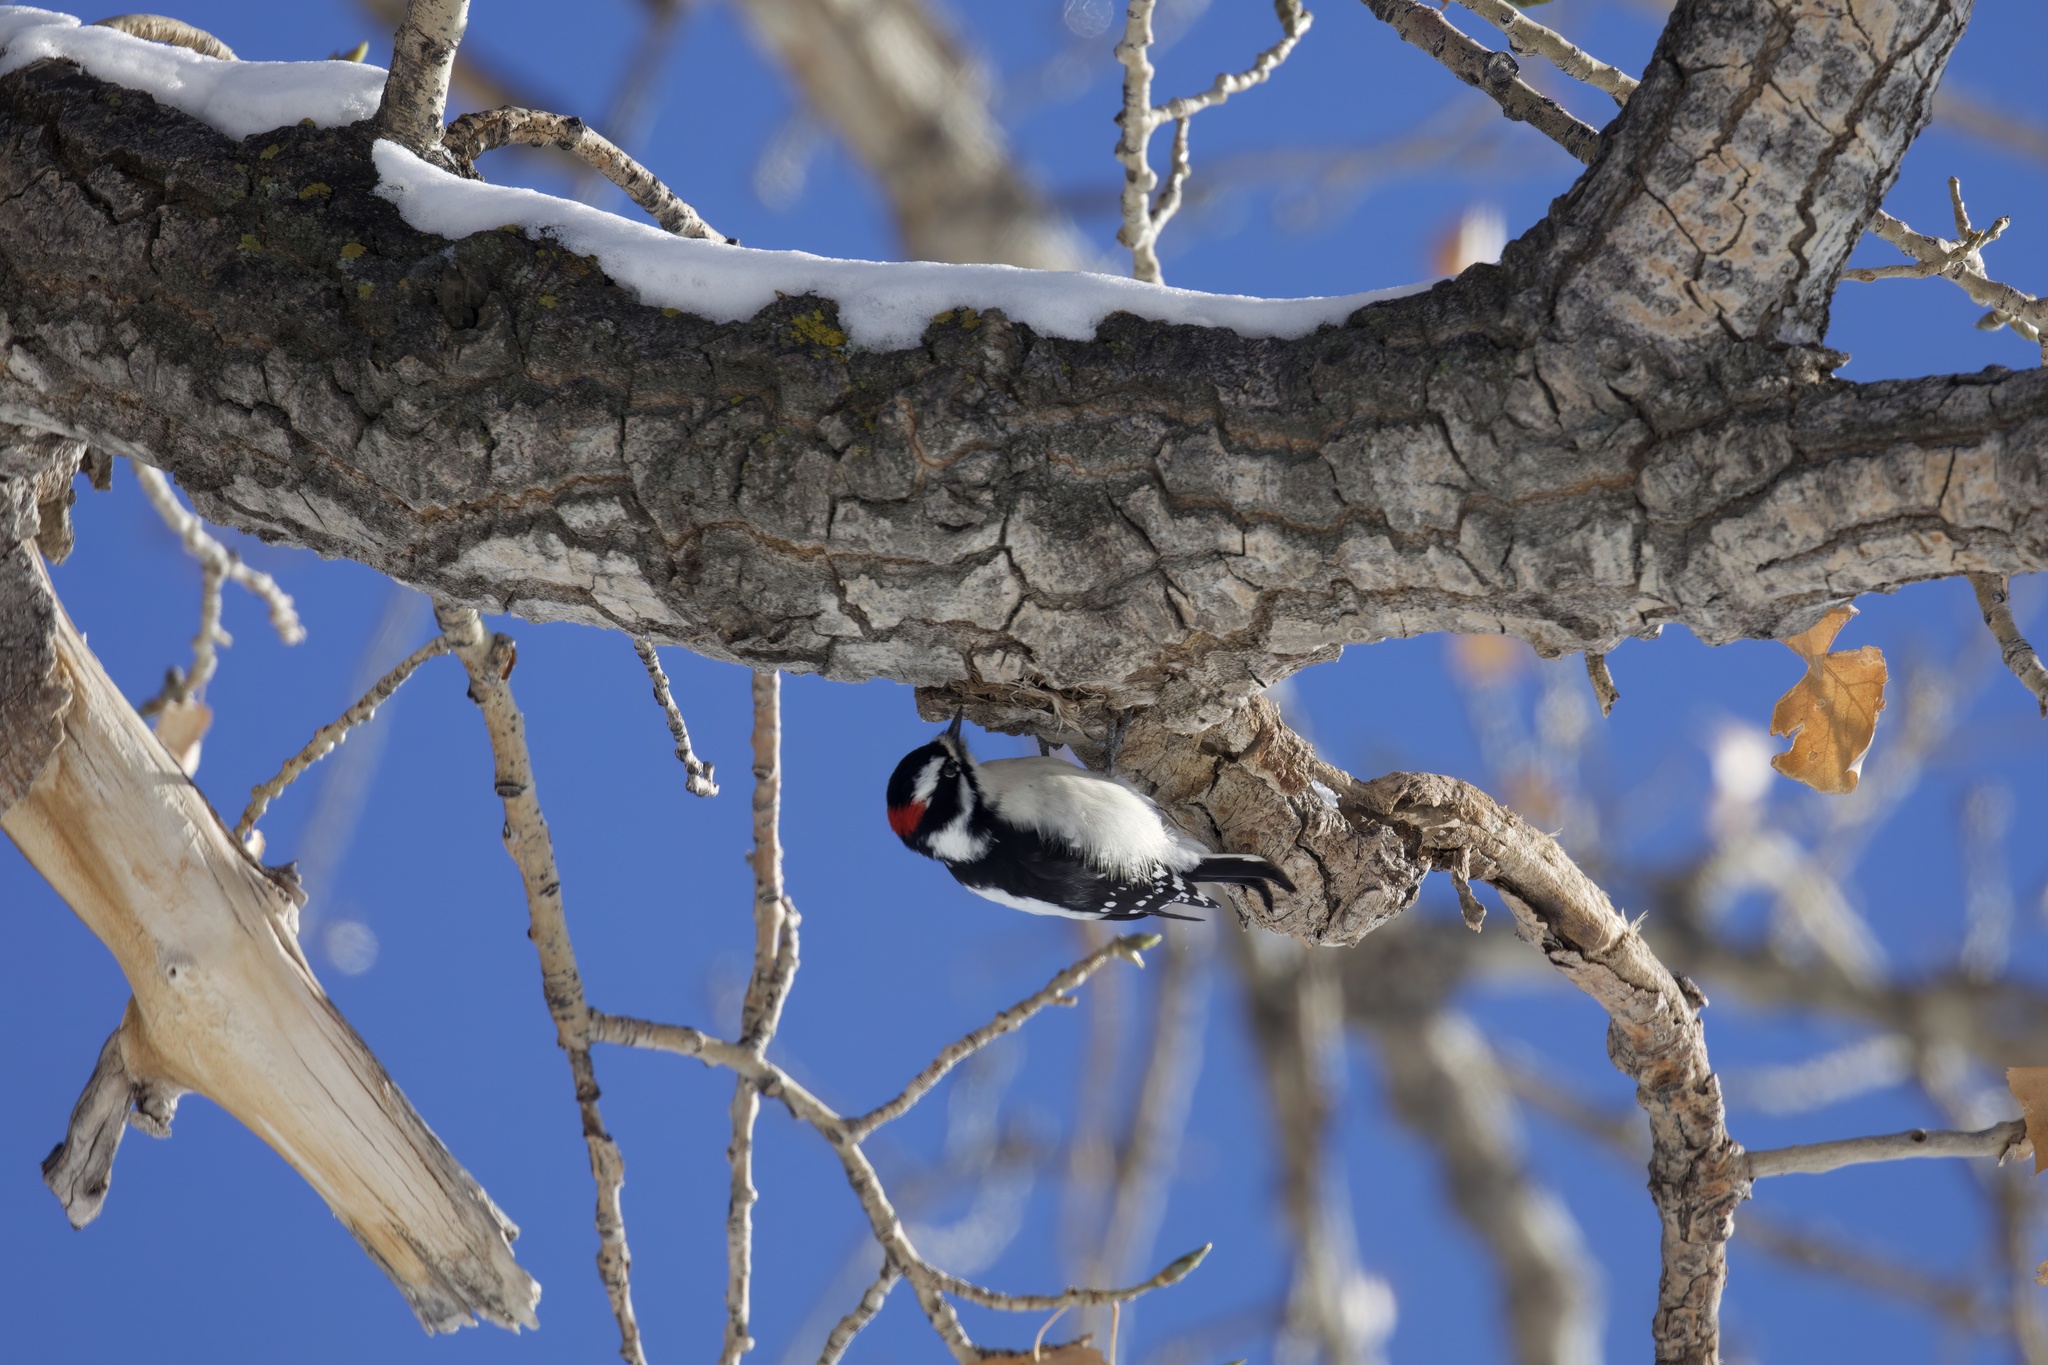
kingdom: Animalia
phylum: Chordata
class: Aves
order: Piciformes
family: Picidae
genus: Dryobates
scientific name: Dryobates pubescens
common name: Downy woodpecker
